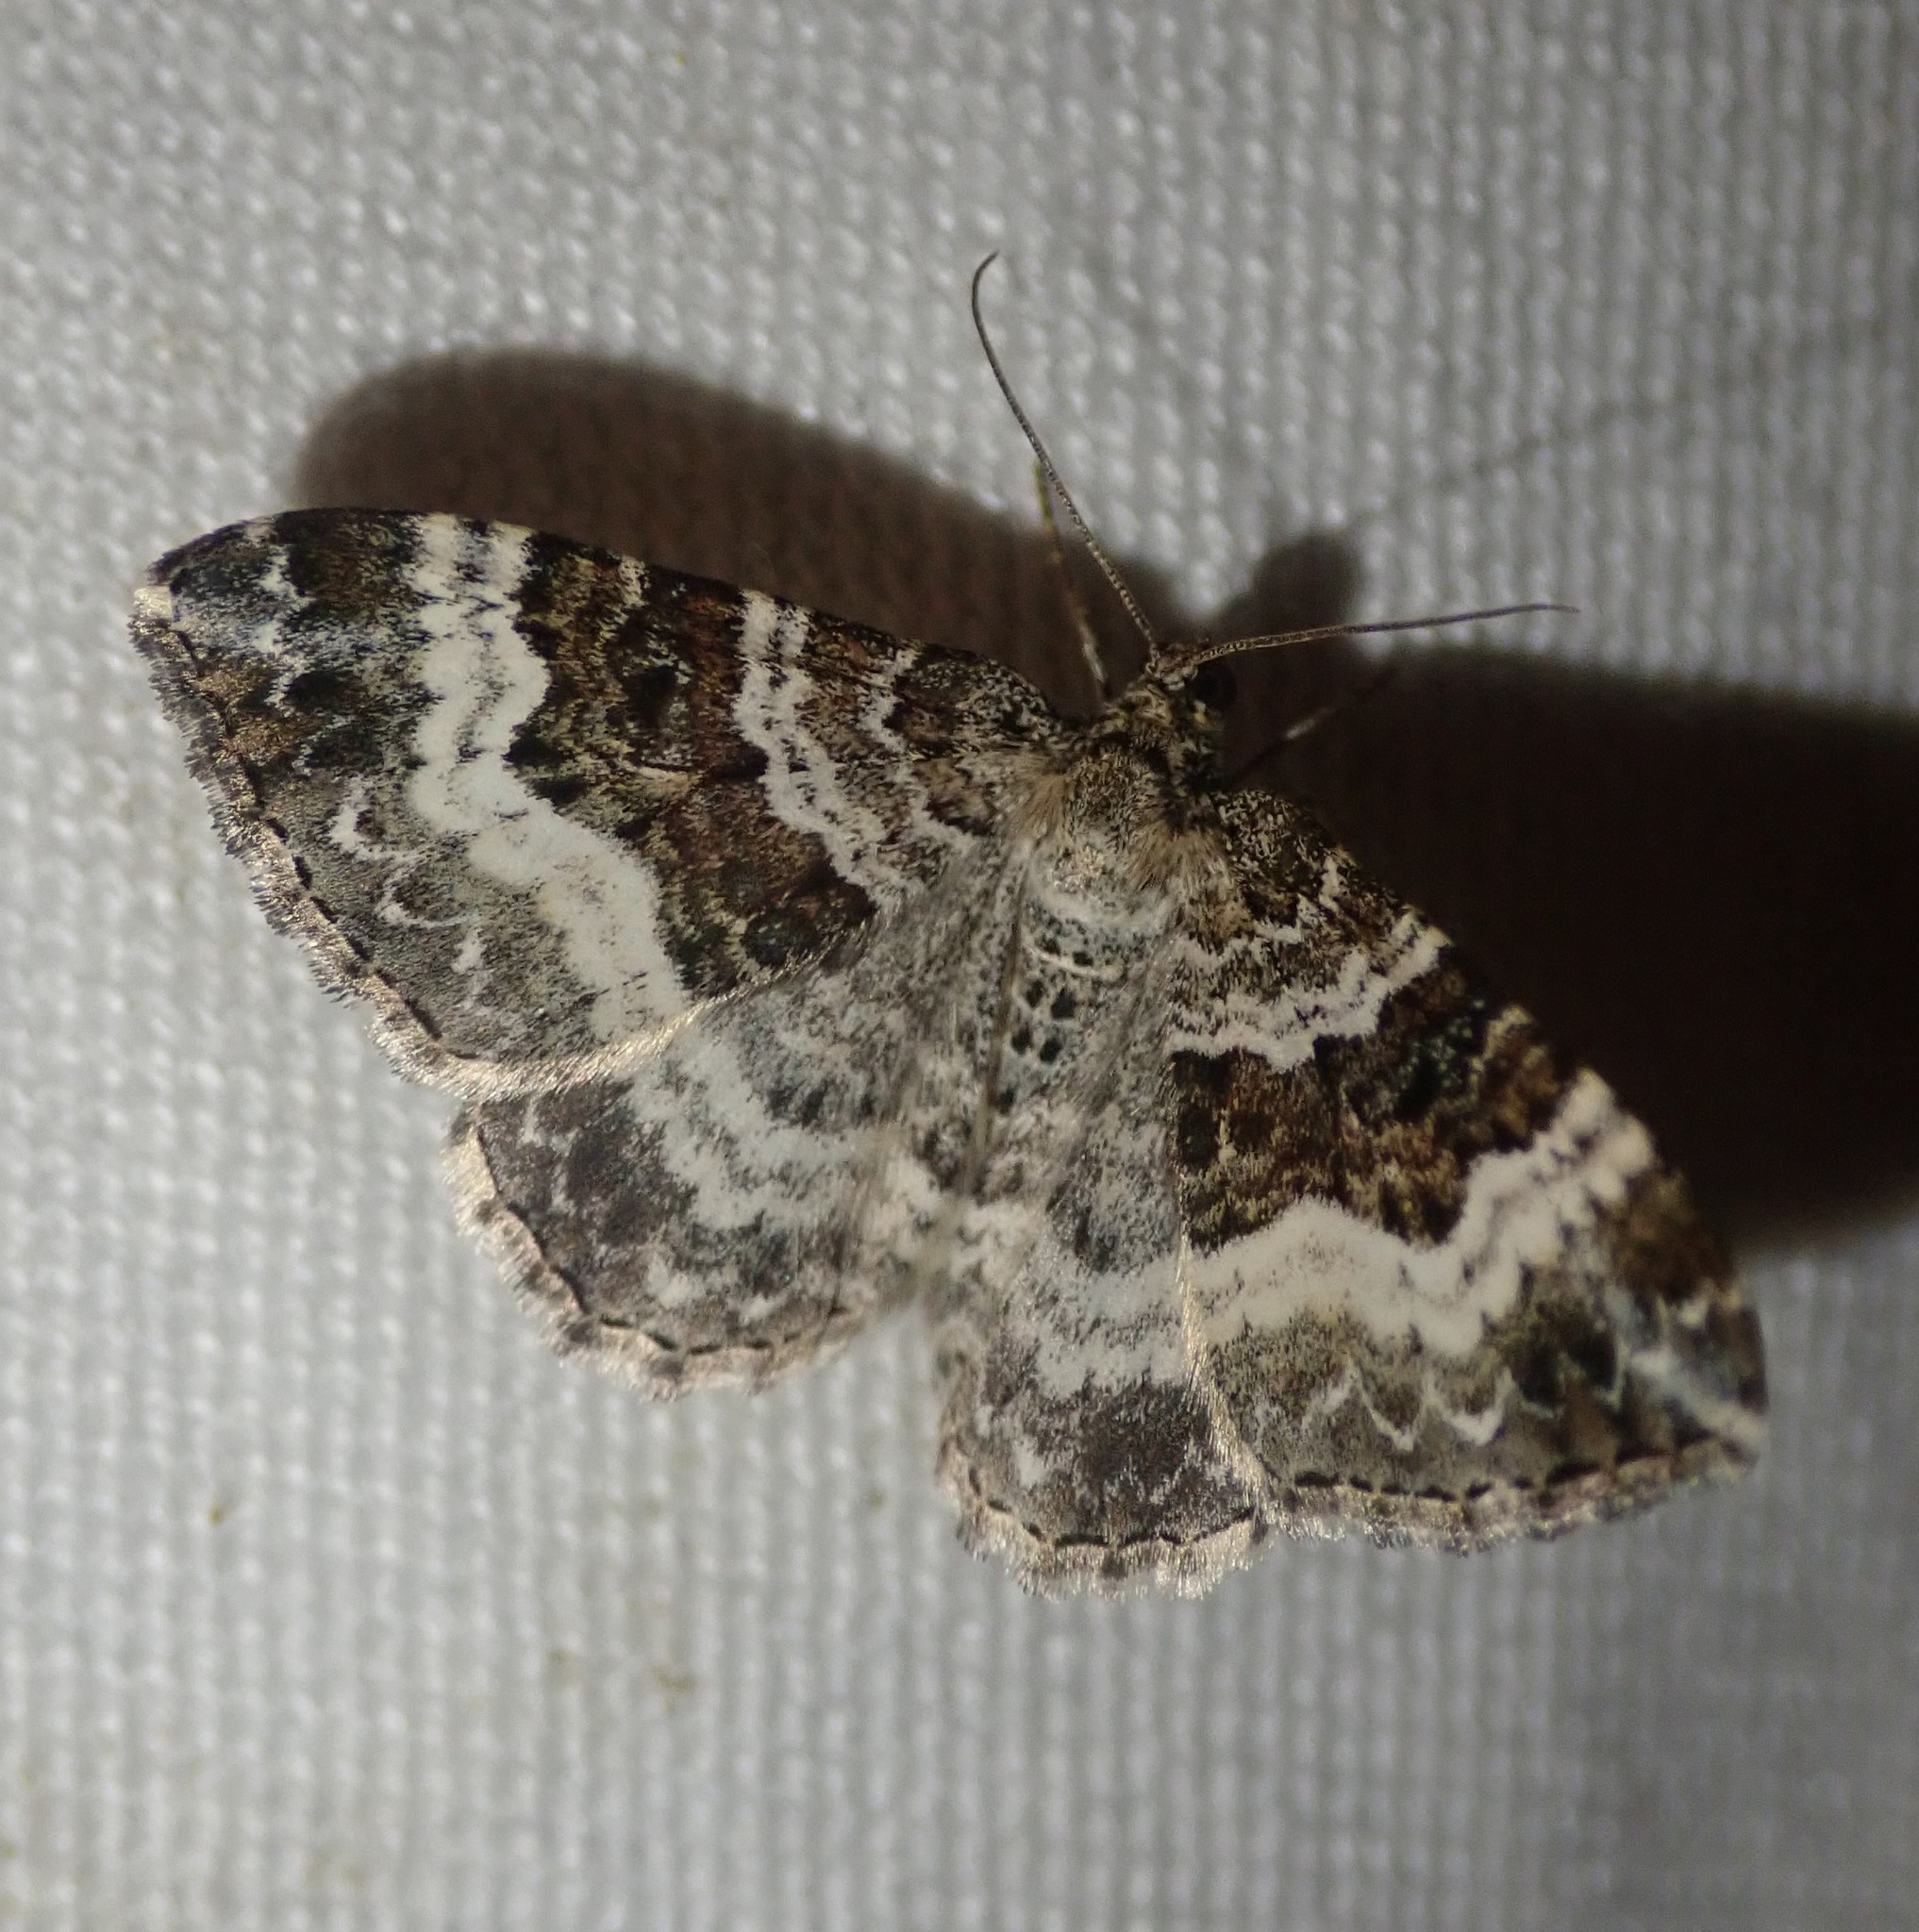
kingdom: Animalia
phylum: Arthropoda
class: Insecta
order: Lepidoptera
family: Geometridae
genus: Epirrhoe
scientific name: Epirrhoe alternata
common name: Common carpet
